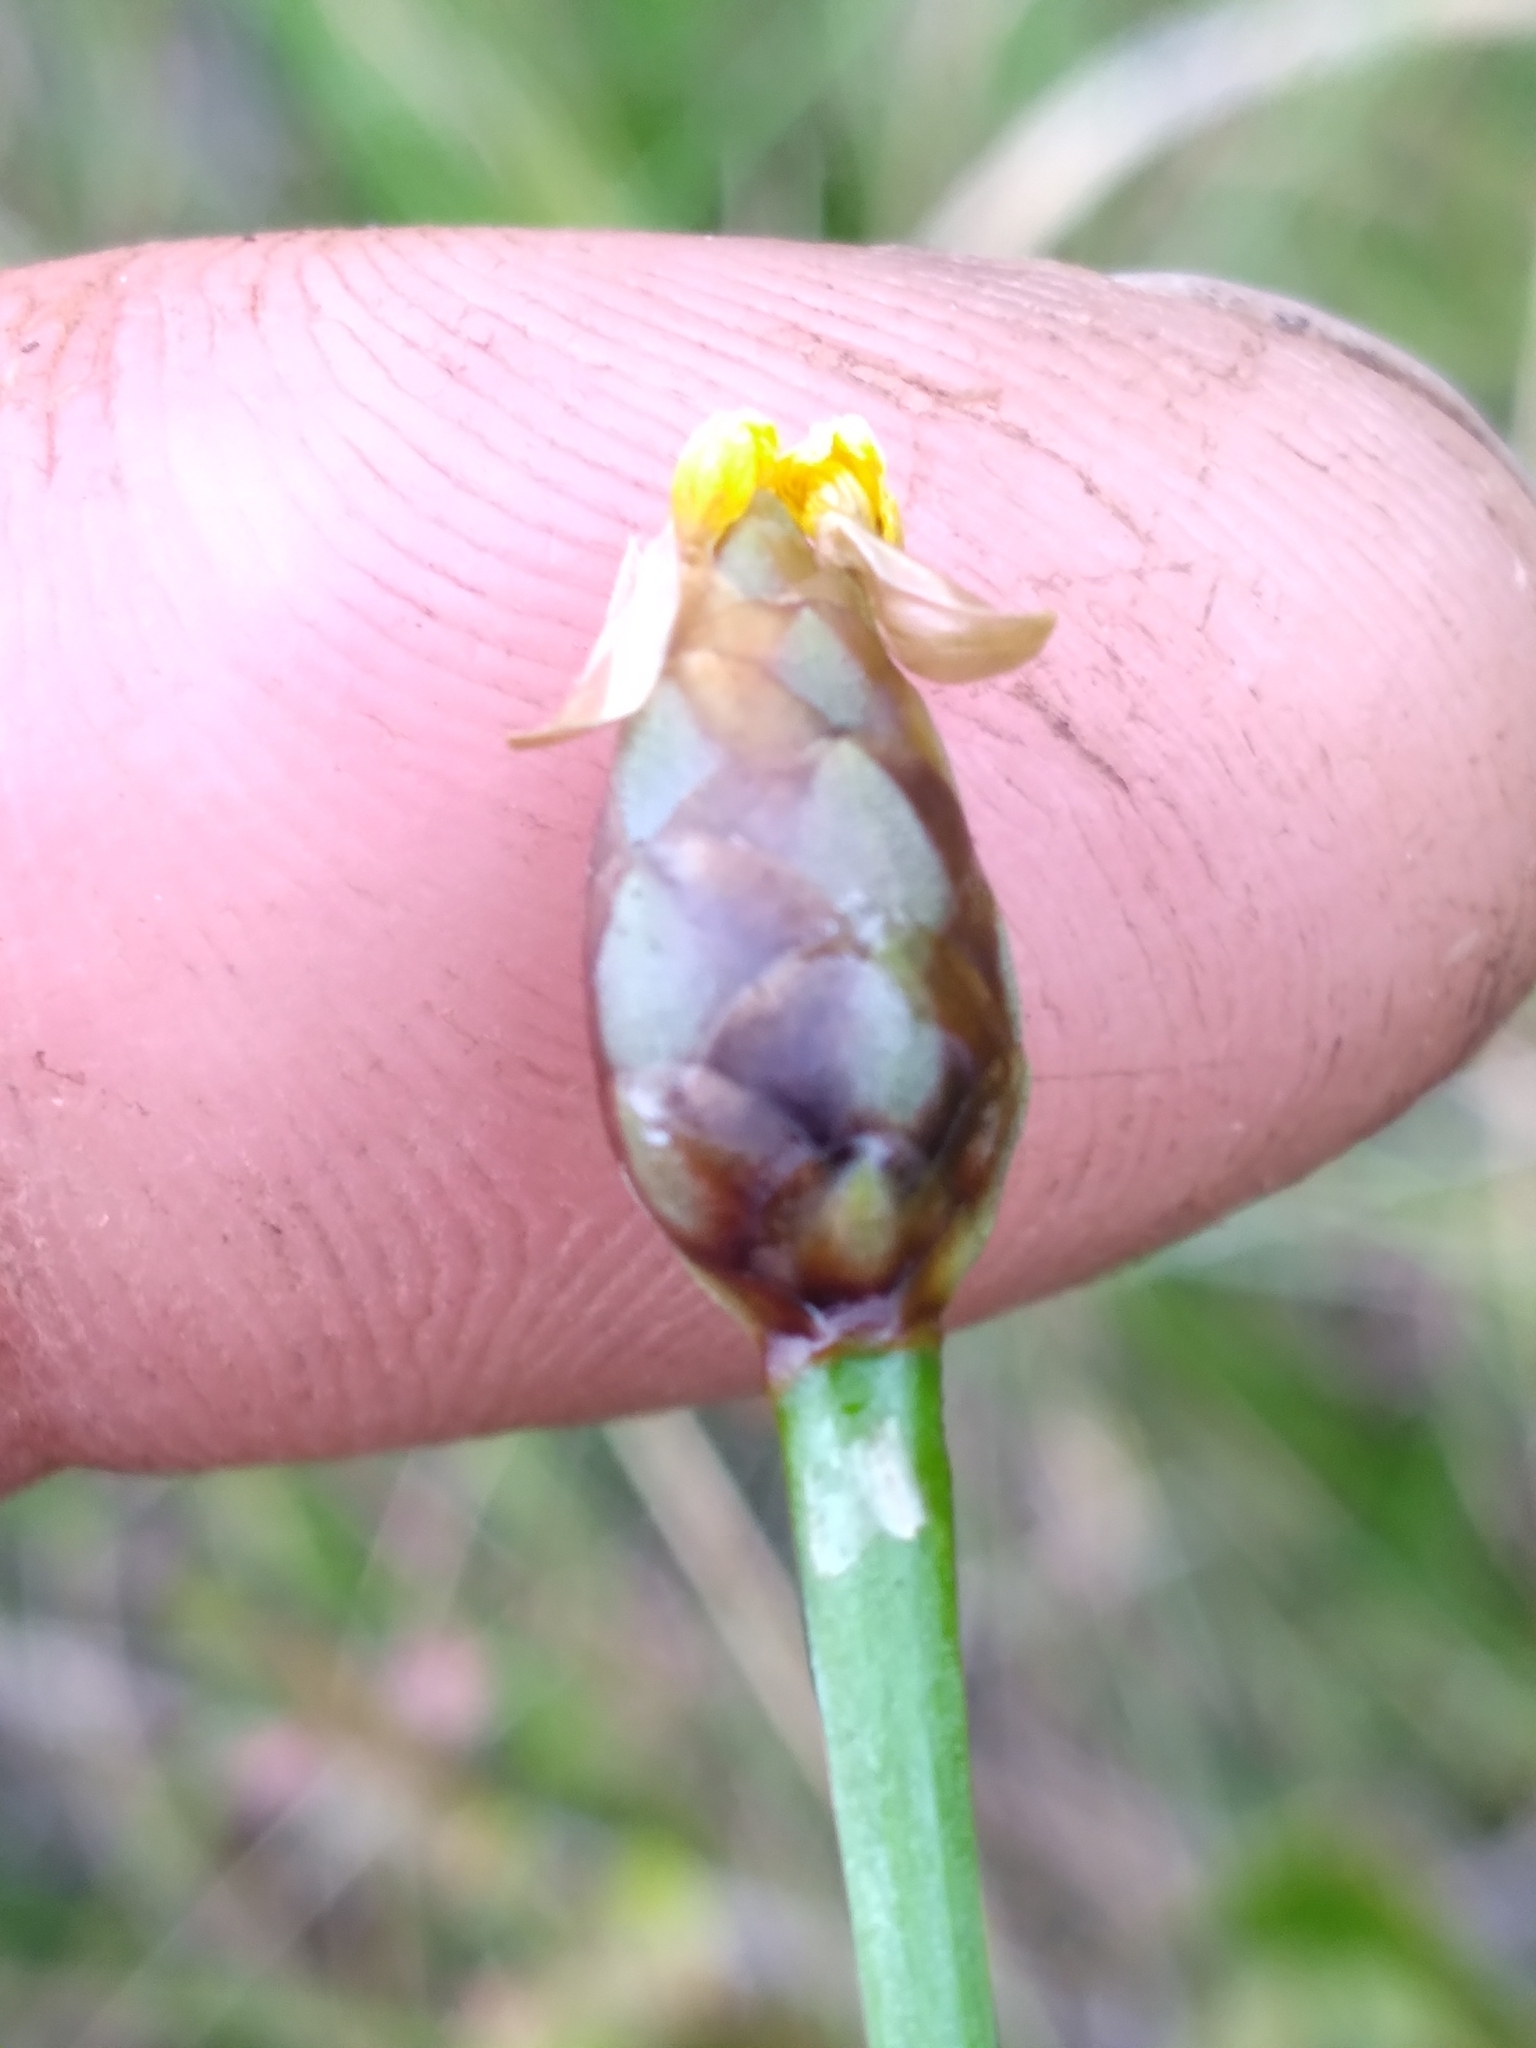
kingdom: Plantae
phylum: Tracheophyta
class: Liliopsida
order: Poales
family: Xyridaceae
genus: Xyris
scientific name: Xyris scabrifolia
